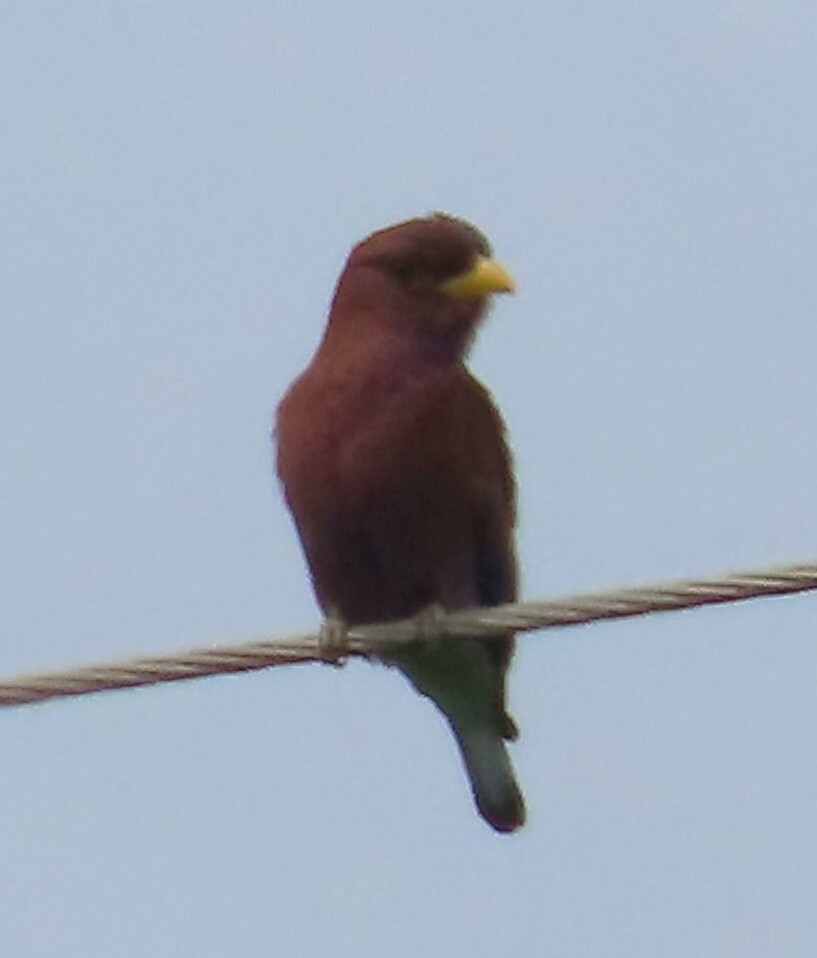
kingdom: Animalia
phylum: Chordata
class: Aves
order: Coraciiformes
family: Coraciidae
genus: Eurystomus
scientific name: Eurystomus glaucurus
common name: Broad-billed roller
